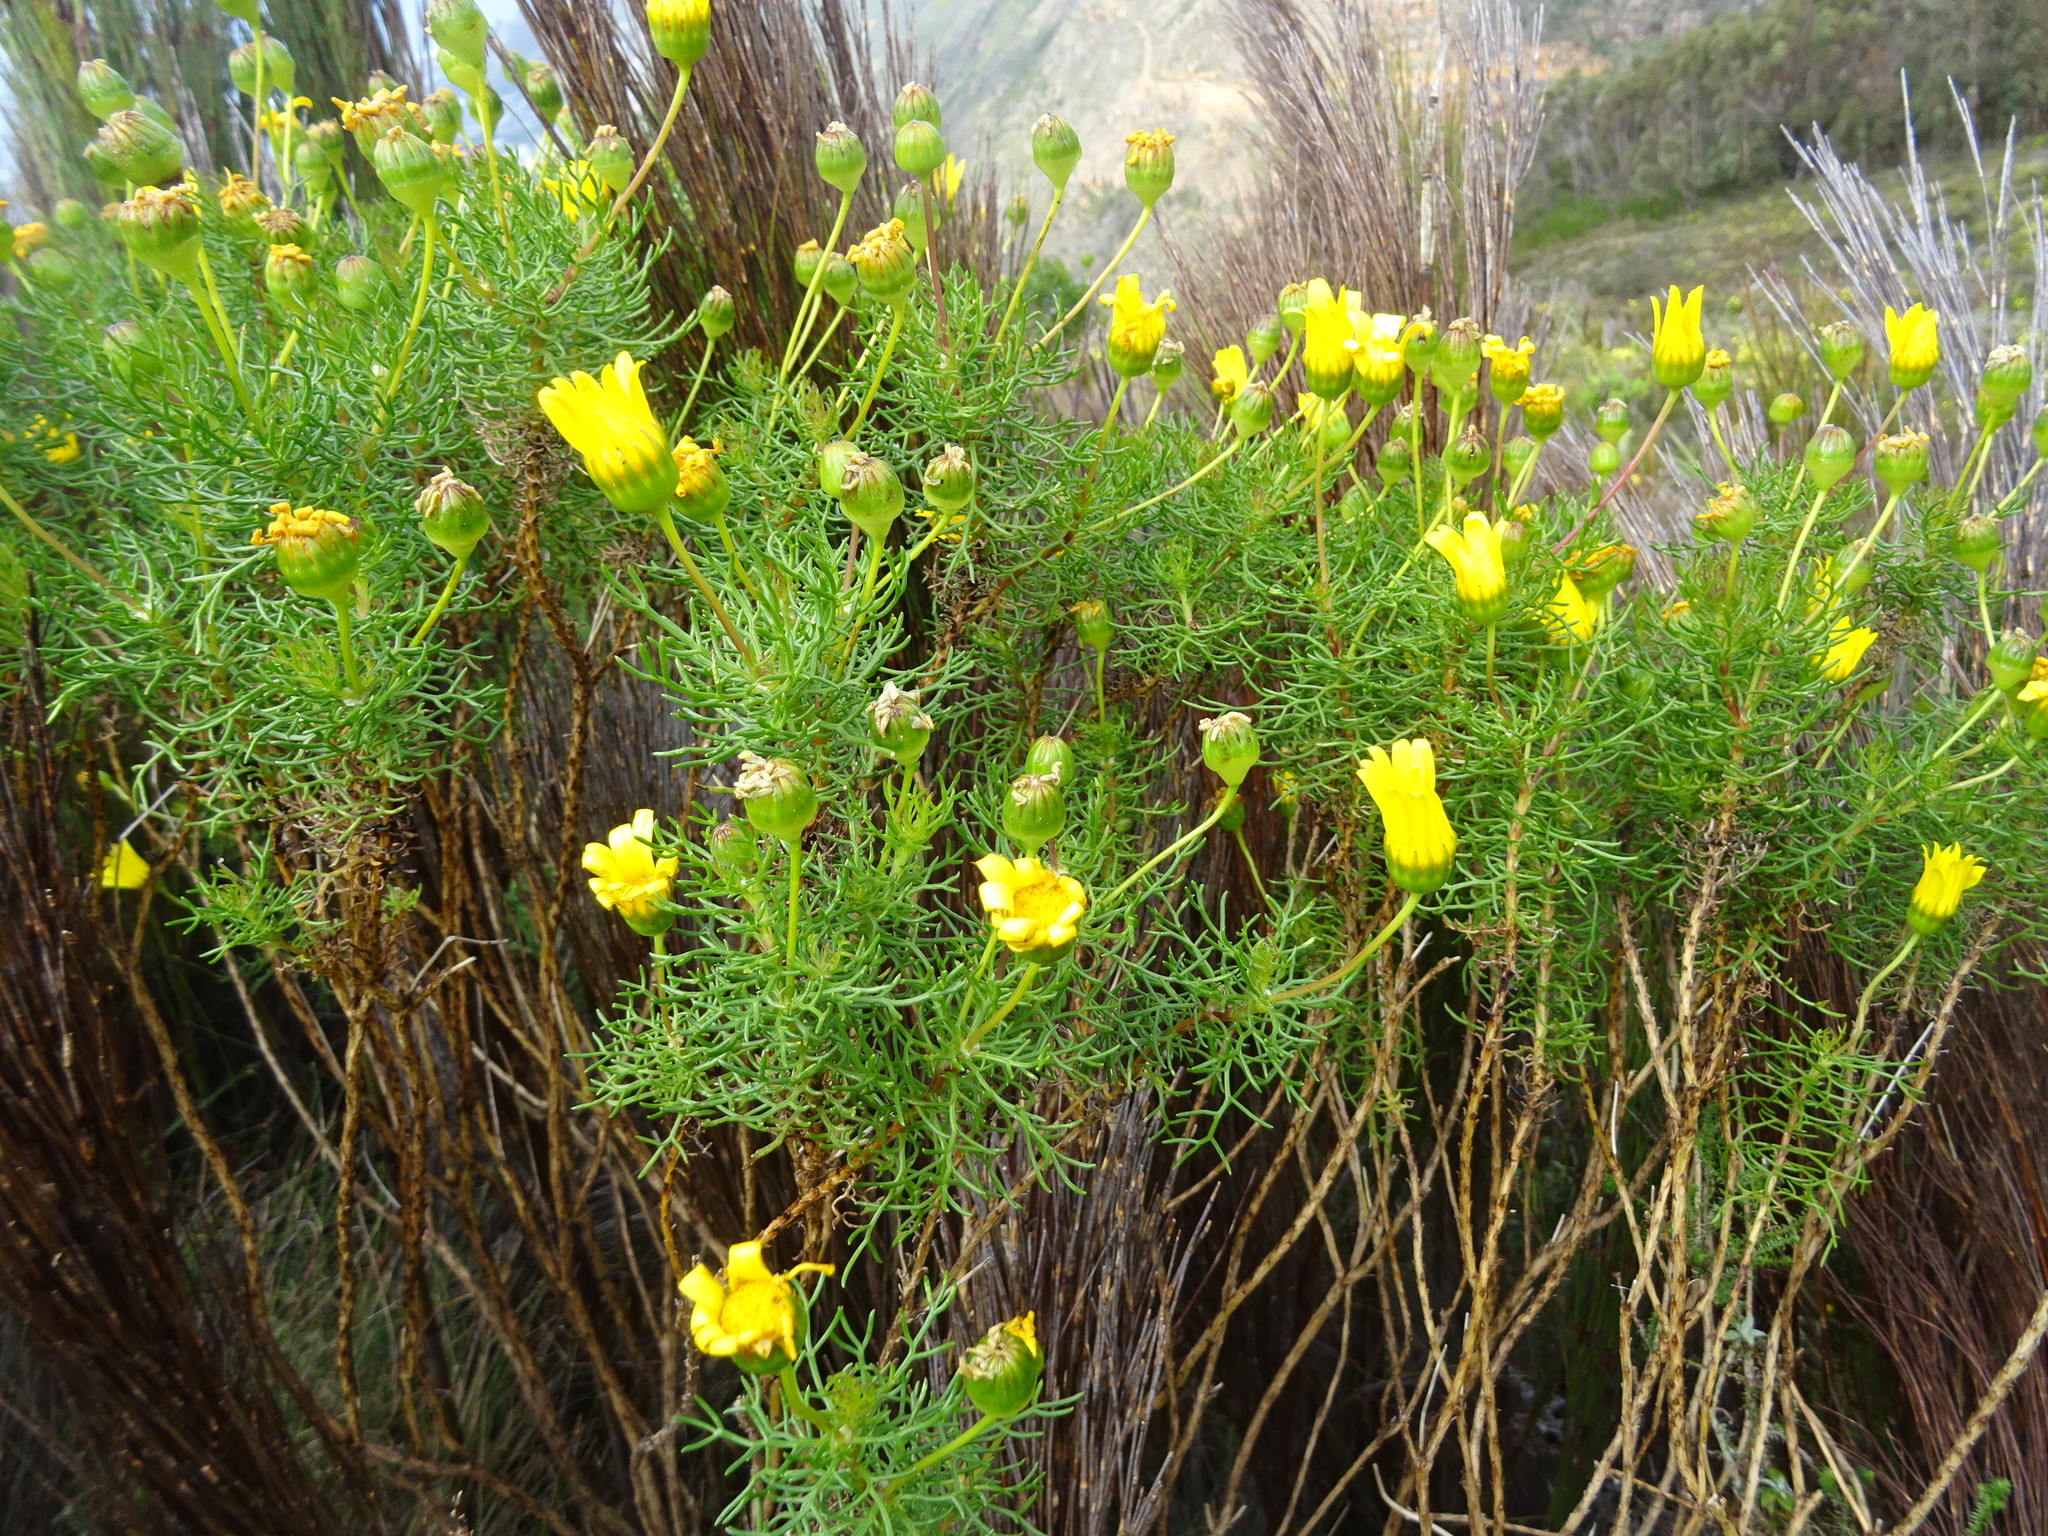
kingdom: Plantae
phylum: Tracheophyta
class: Magnoliopsida
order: Asterales
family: Asteraceae
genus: Euryops
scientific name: Euryops abrotanifolius
